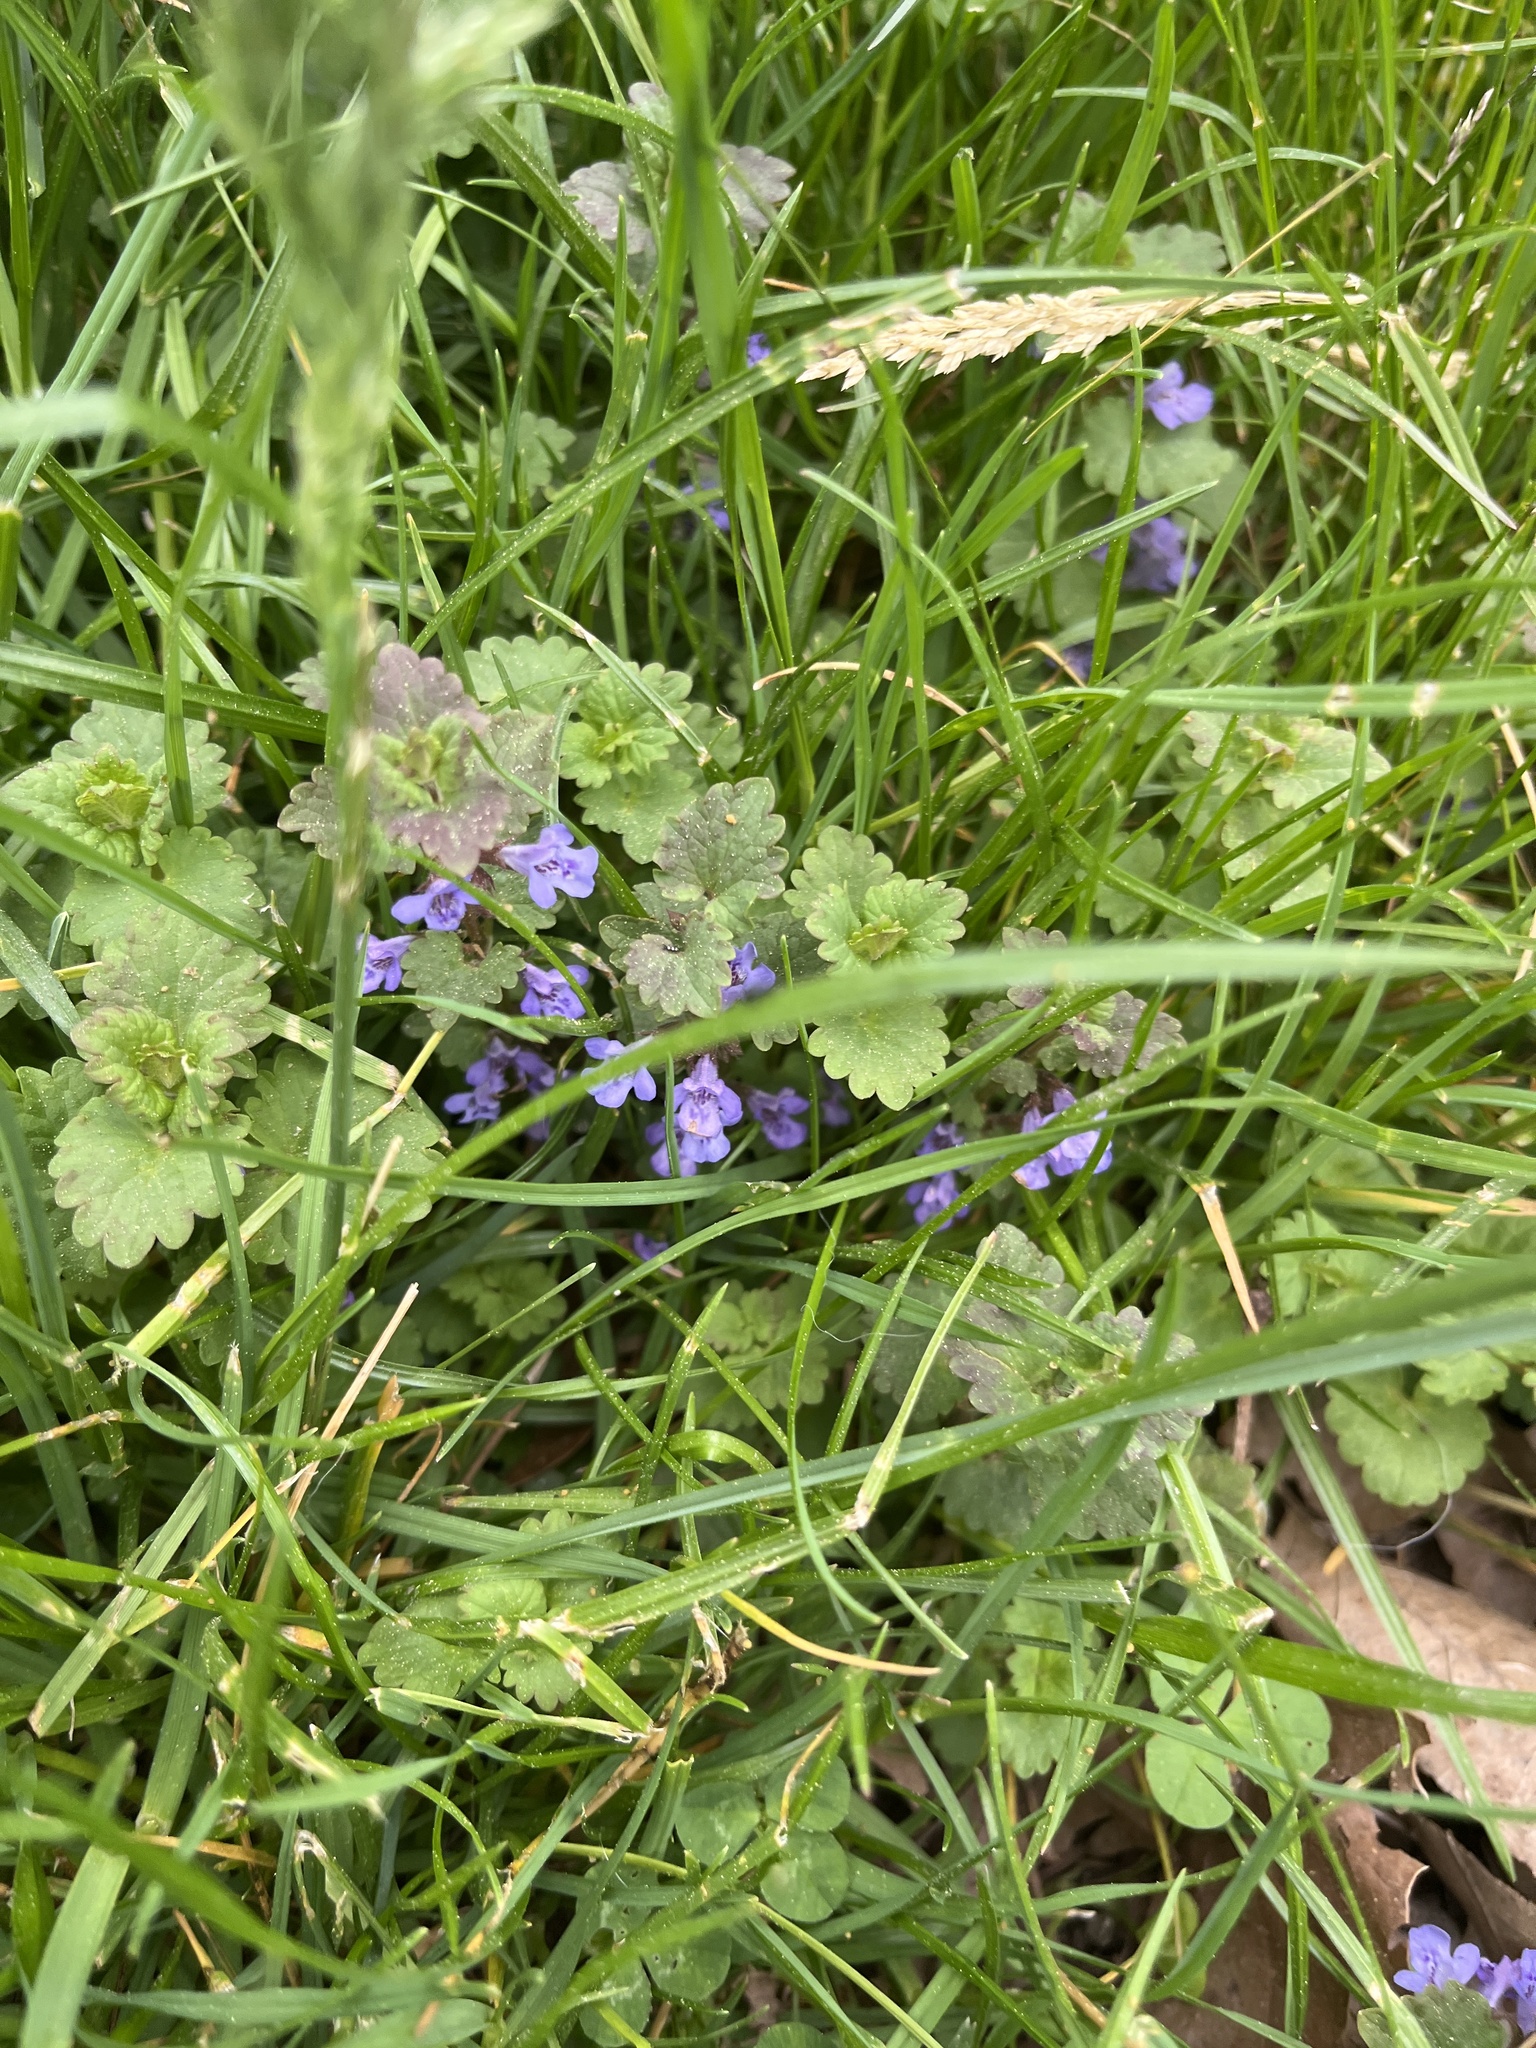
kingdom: Plantae
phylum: Tracheophyta
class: Magnoliopsida
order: Lamiales
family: Lamiaceae
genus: Glechoma
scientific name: Glechoma hederacea
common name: Ground ivy
